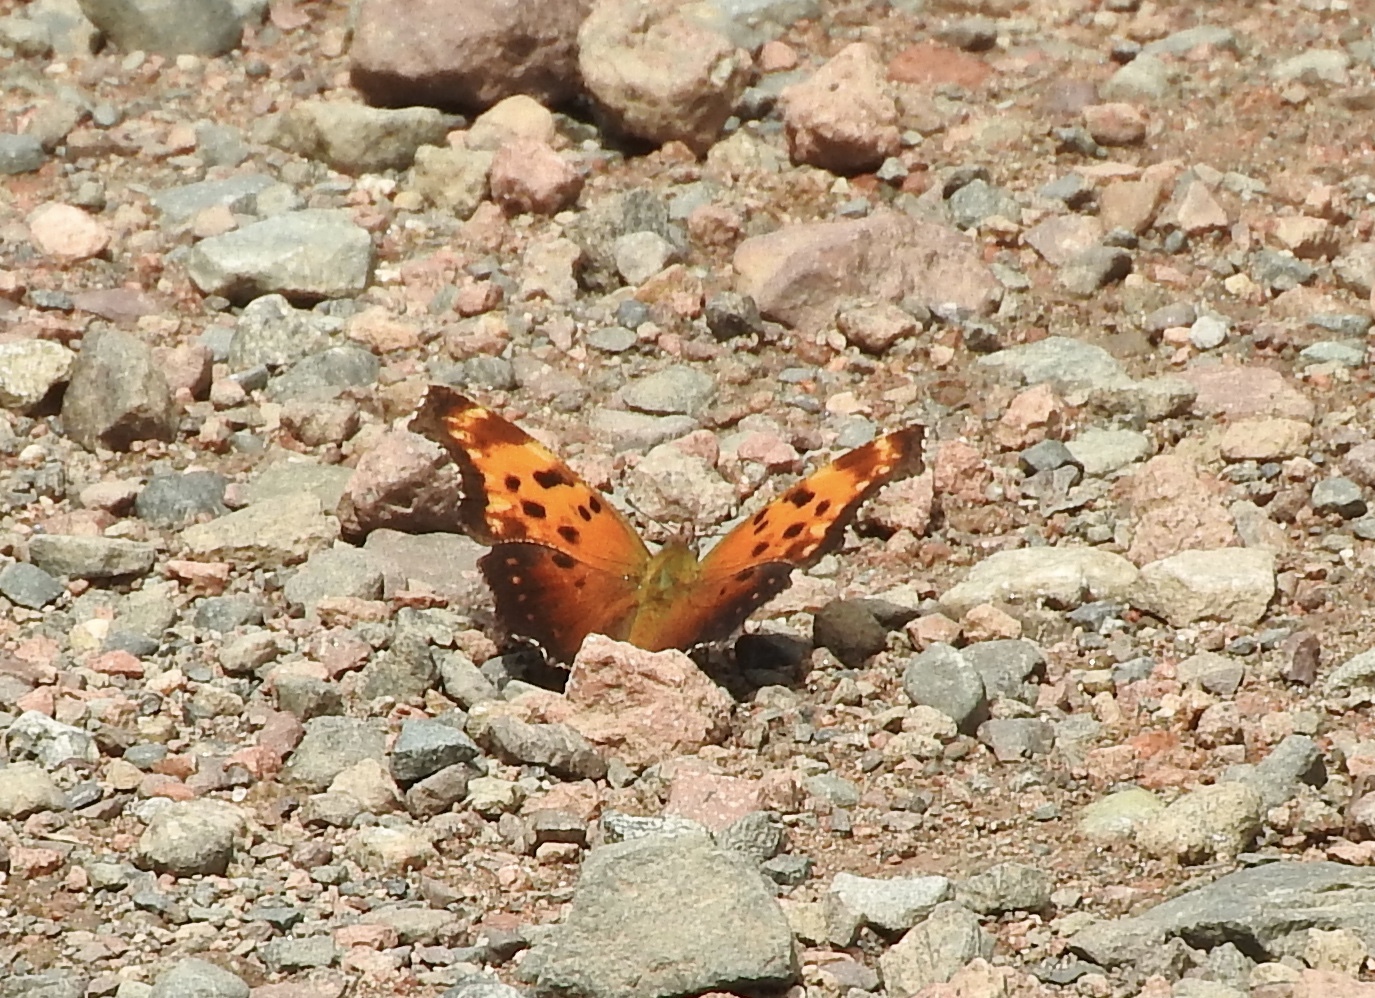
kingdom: Animalia
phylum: Arthropoda
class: Insecta
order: Lepidoptera
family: Nymphalidae
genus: Polygonia
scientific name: Polygonia progne
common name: Gray comma
